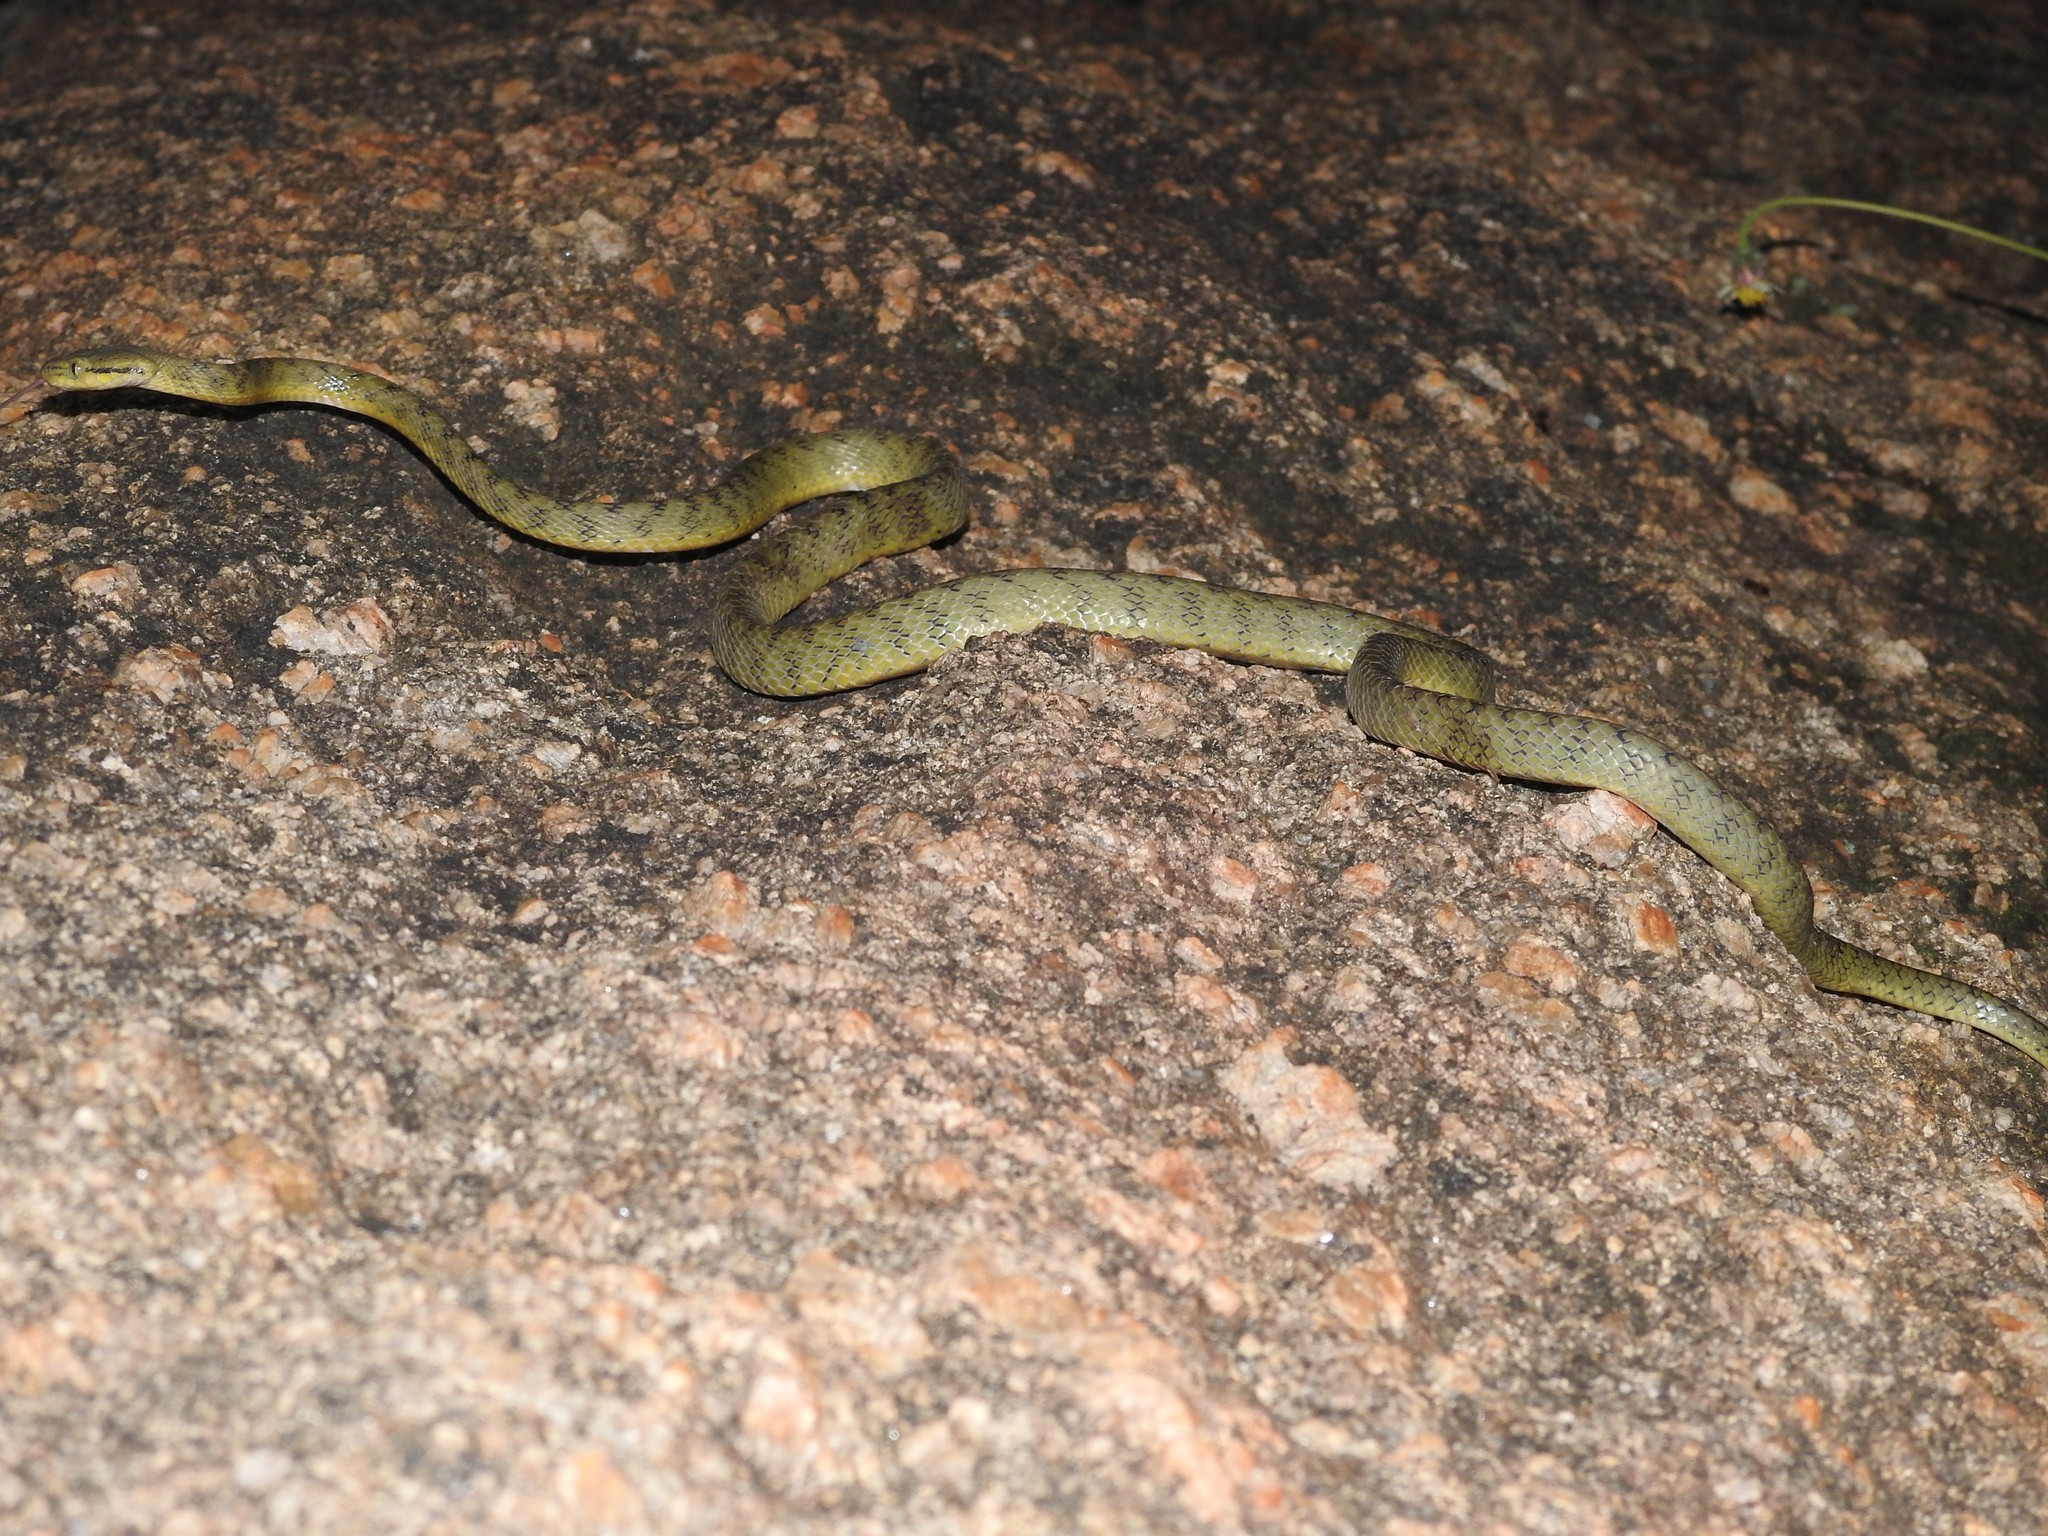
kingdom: Animalia
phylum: Chordata
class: Squamata
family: Colubridae
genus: Boiga
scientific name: Boiga flaviviridis
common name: Yellow-green cat snake
